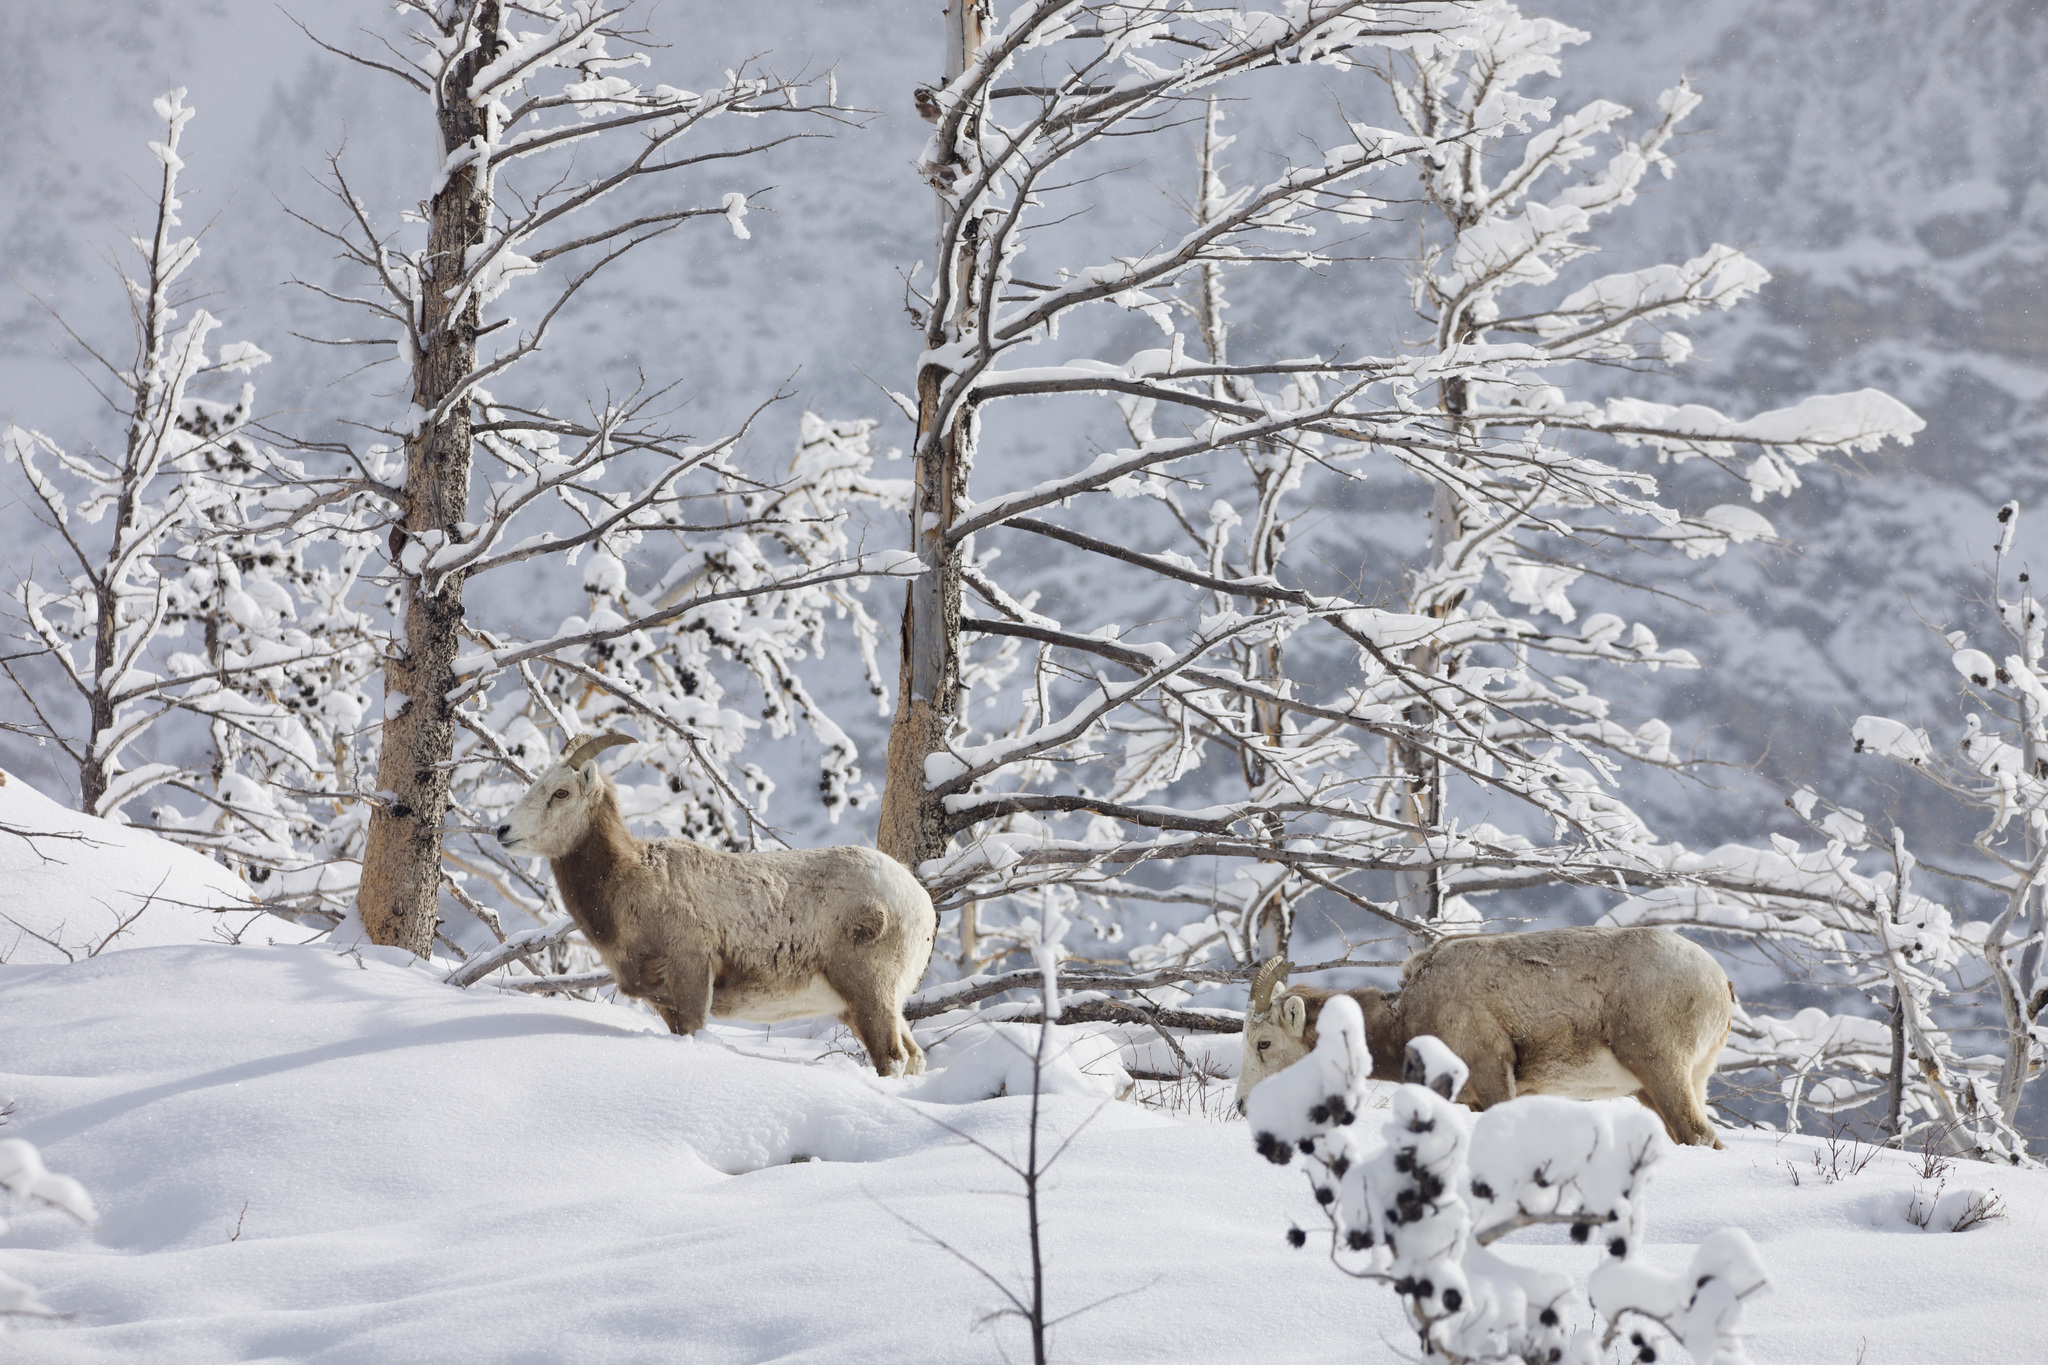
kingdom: Animalia
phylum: Chordata
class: Mammalia
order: Artiodactyla
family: Bovidae
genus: Ovis
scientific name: Ovis canadensis
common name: Bighorn sheep
